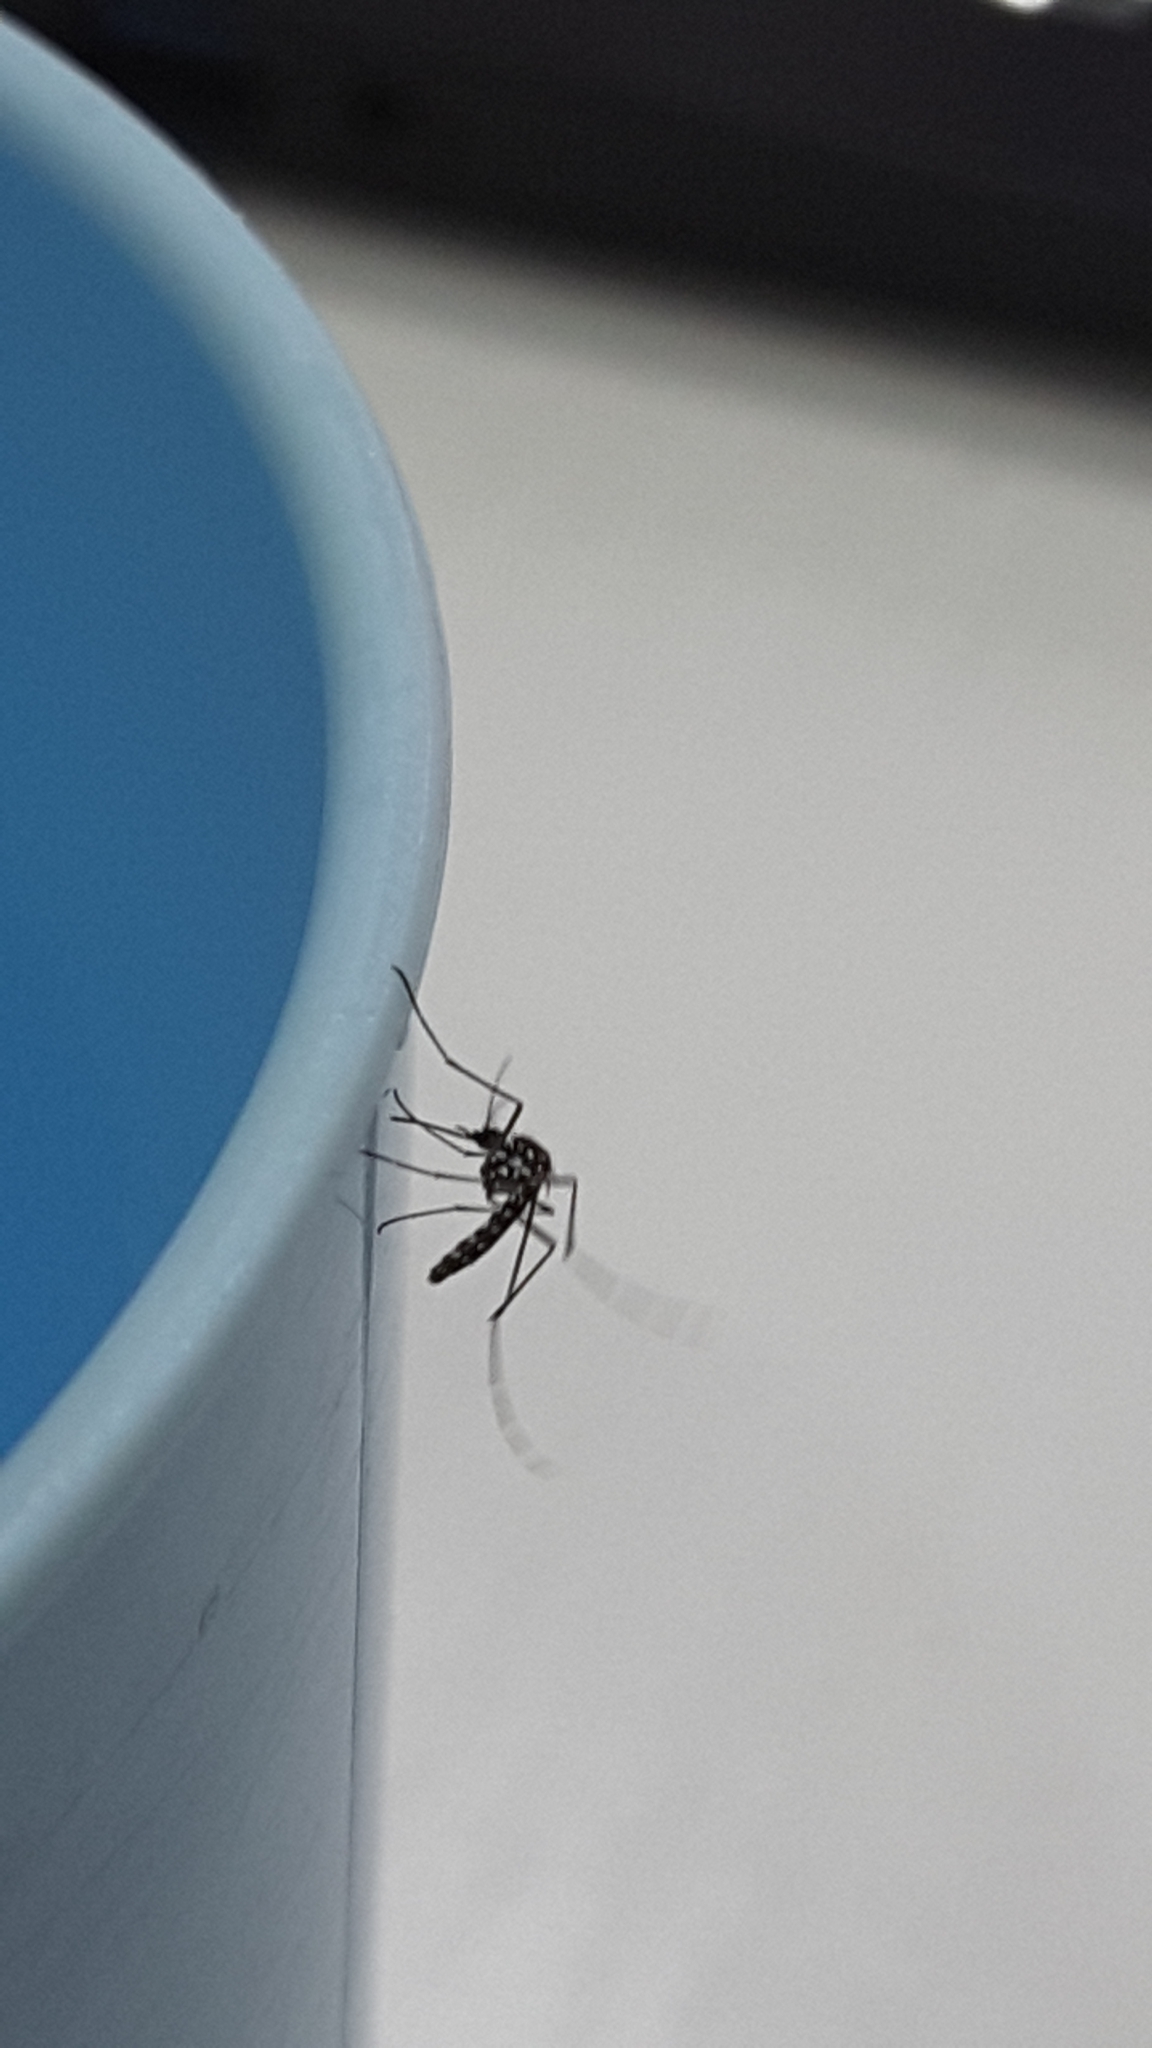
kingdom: Animalia
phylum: Arthropoda
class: Insecta
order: Diptera
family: Culicidae
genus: Aedes
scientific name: Aedes albopictus
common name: Tiger mosquito
